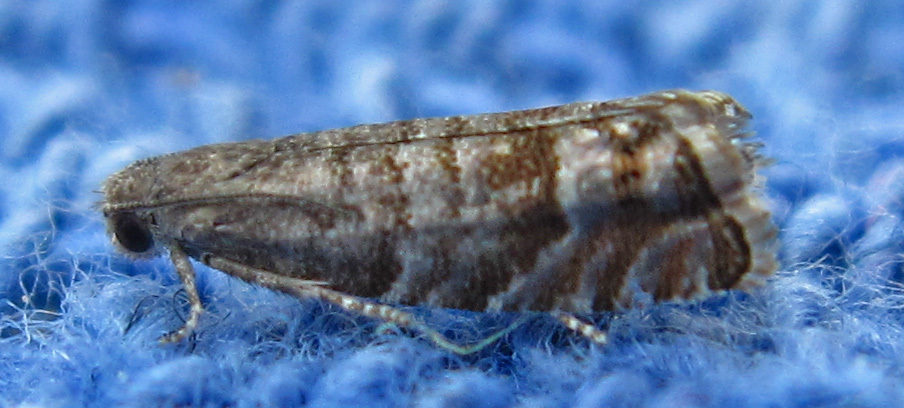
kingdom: Animalia
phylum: Arthropoda
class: Insecta
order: Lepidoptera
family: Tortricidae
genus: Cydia
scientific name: Cydia marita
